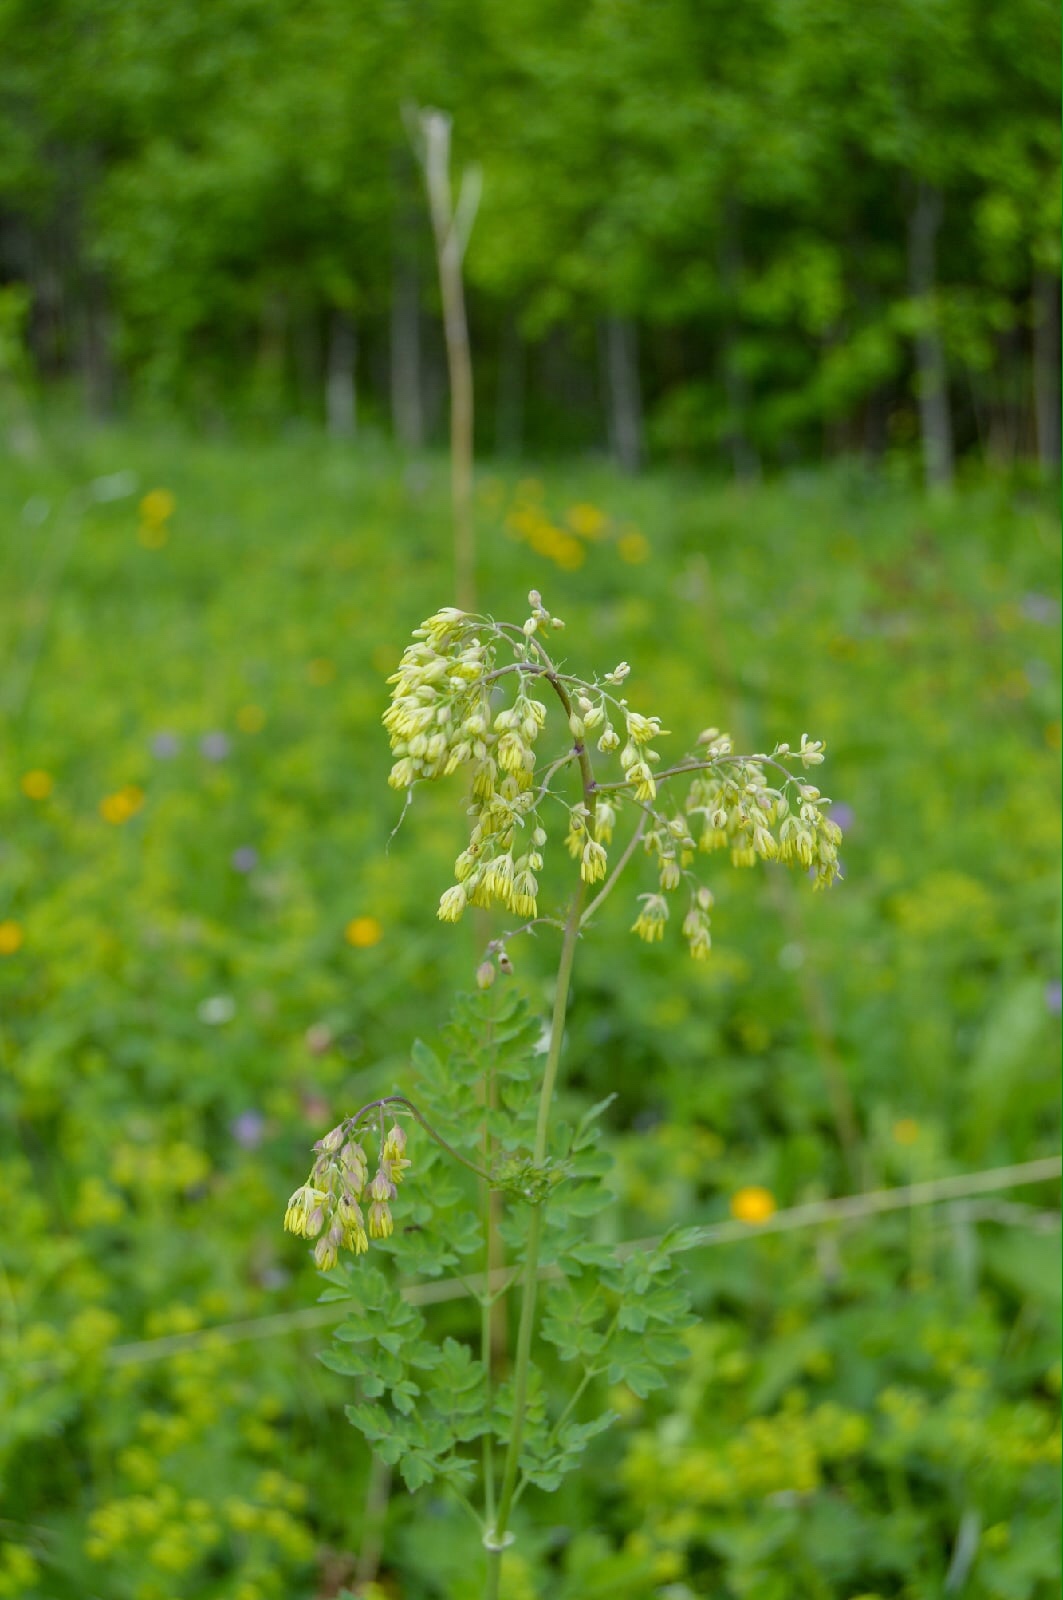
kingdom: Plantae
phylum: Tracheophyta
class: Magnoliopsida
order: Ranunculales
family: Ranunculaceae
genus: Thalictrum
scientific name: Thalictrum minus
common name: Lesser meadow-rue
